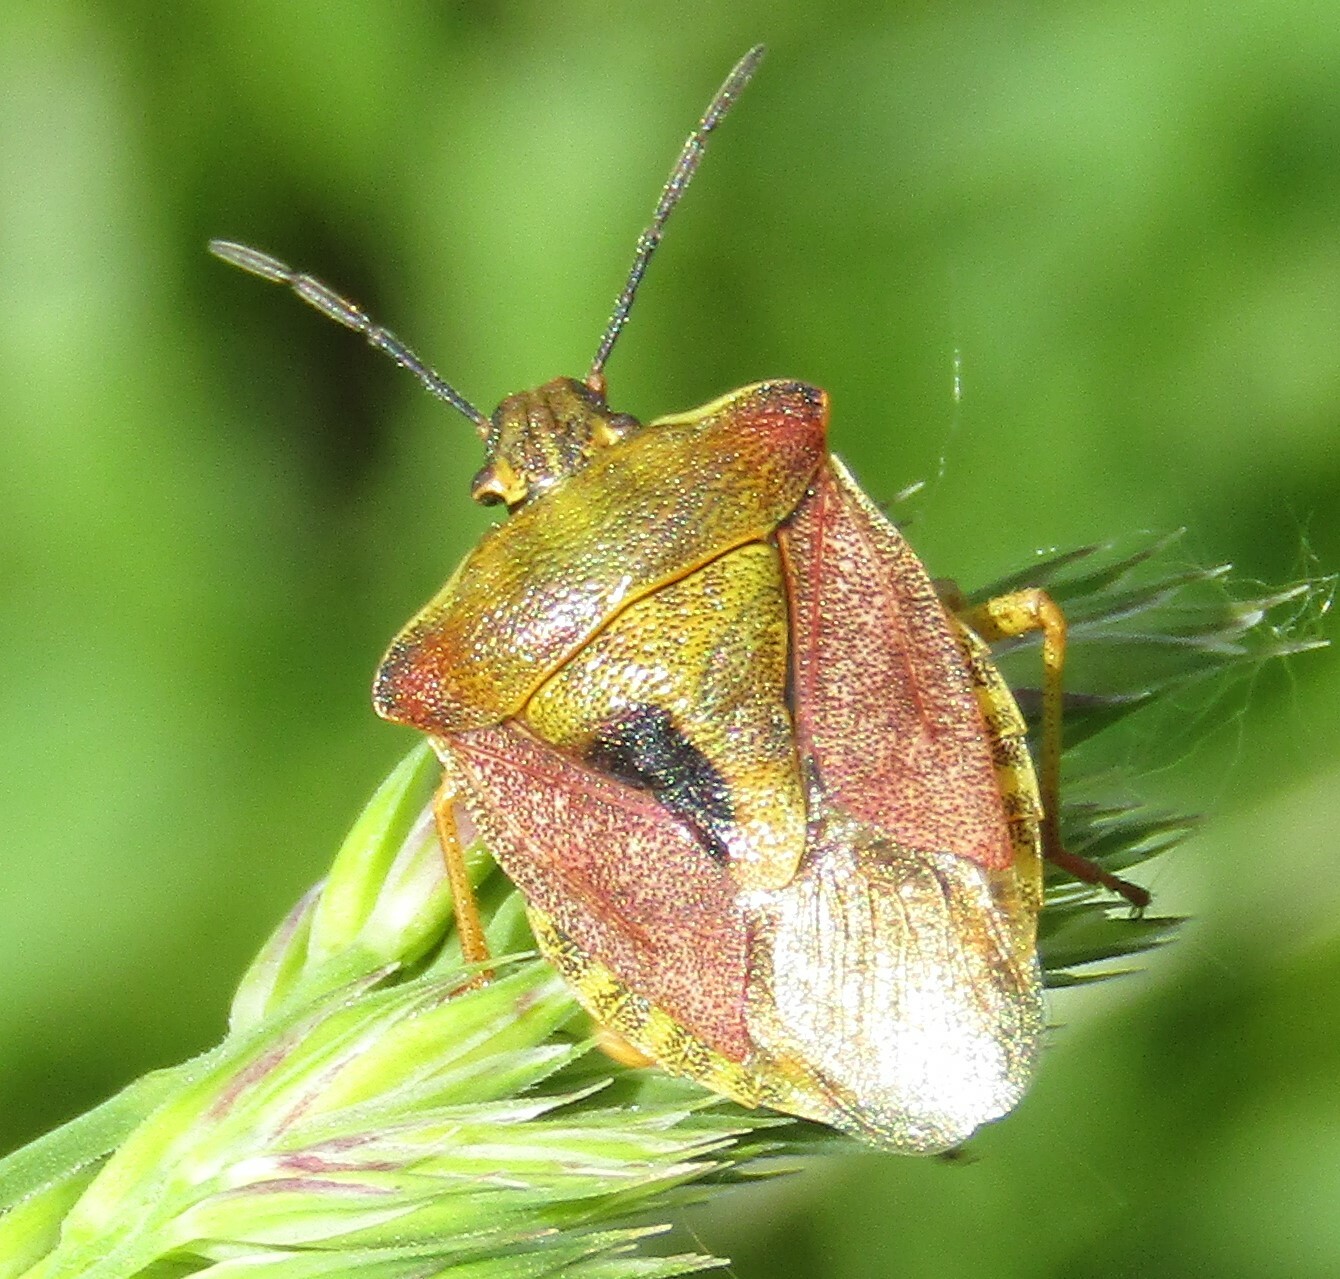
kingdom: Animalia
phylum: Arthropoda
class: Insecta
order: Hemiptera
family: Pentatomidae
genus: Carpocoris
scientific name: Carpocoris purpureipennis
